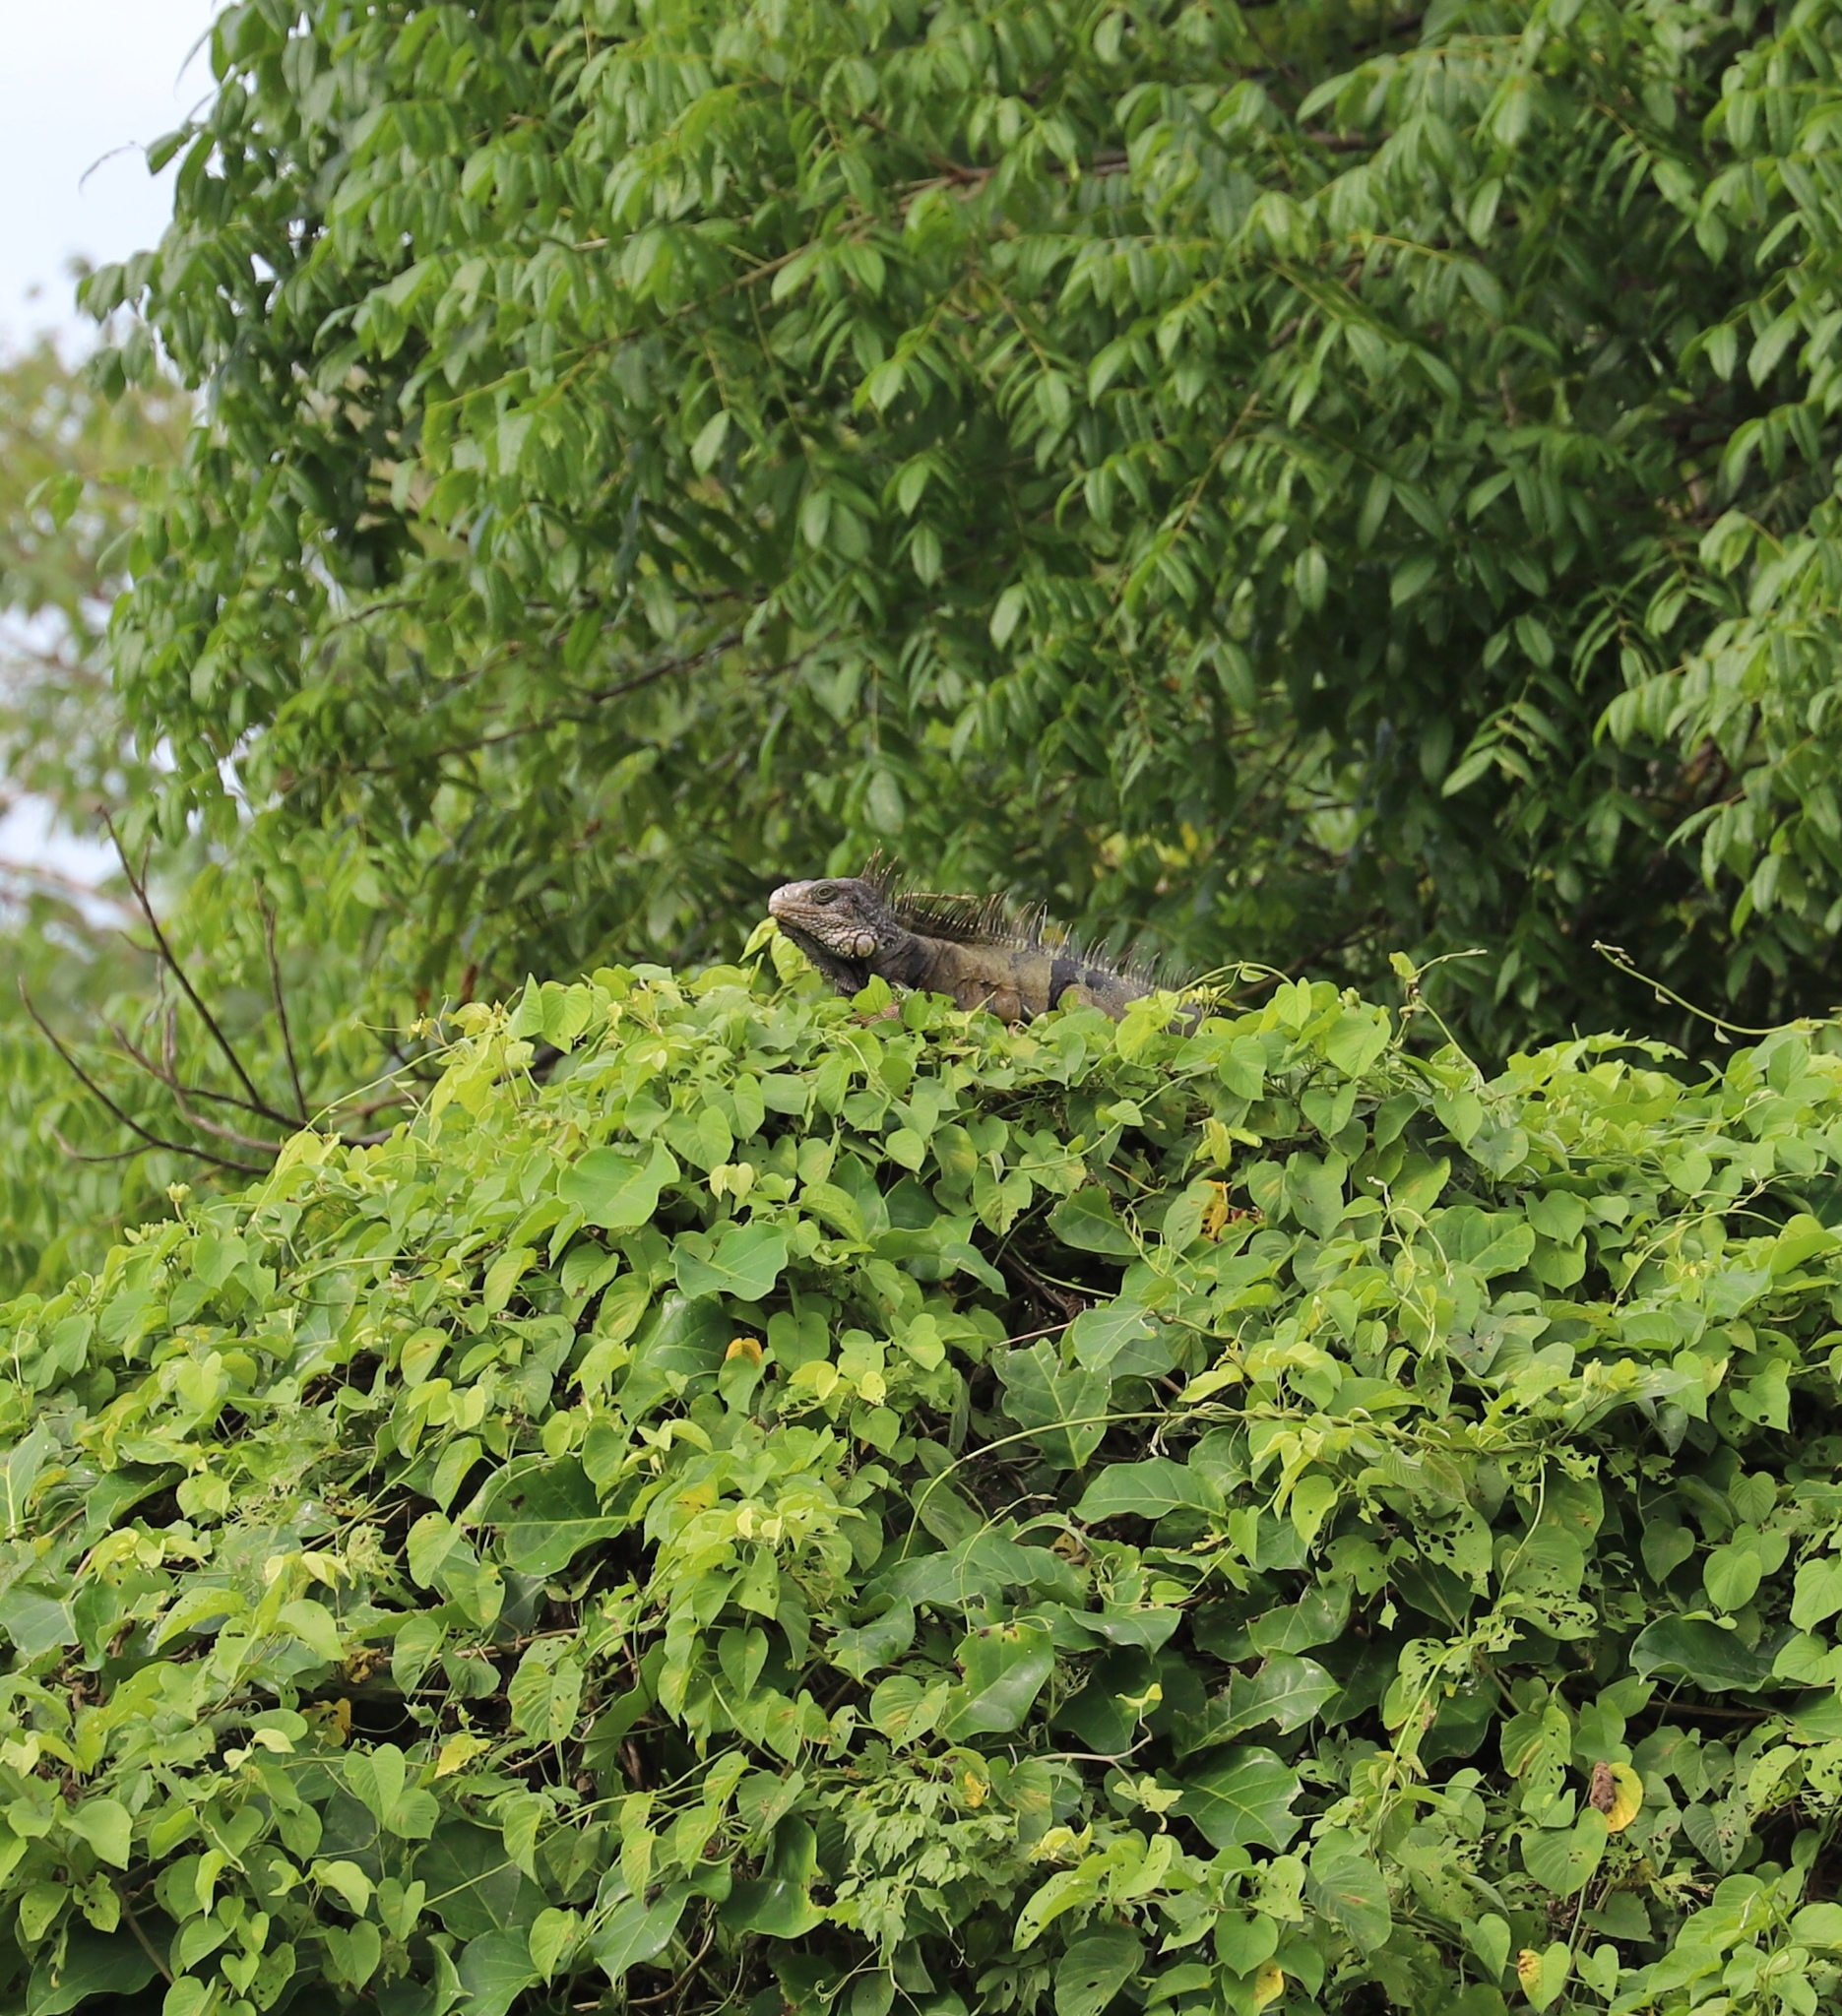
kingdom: Animalia
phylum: Chordata
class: Squamata
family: Iguanidae
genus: Iguana
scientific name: Iguana iguana
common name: Green iguana
